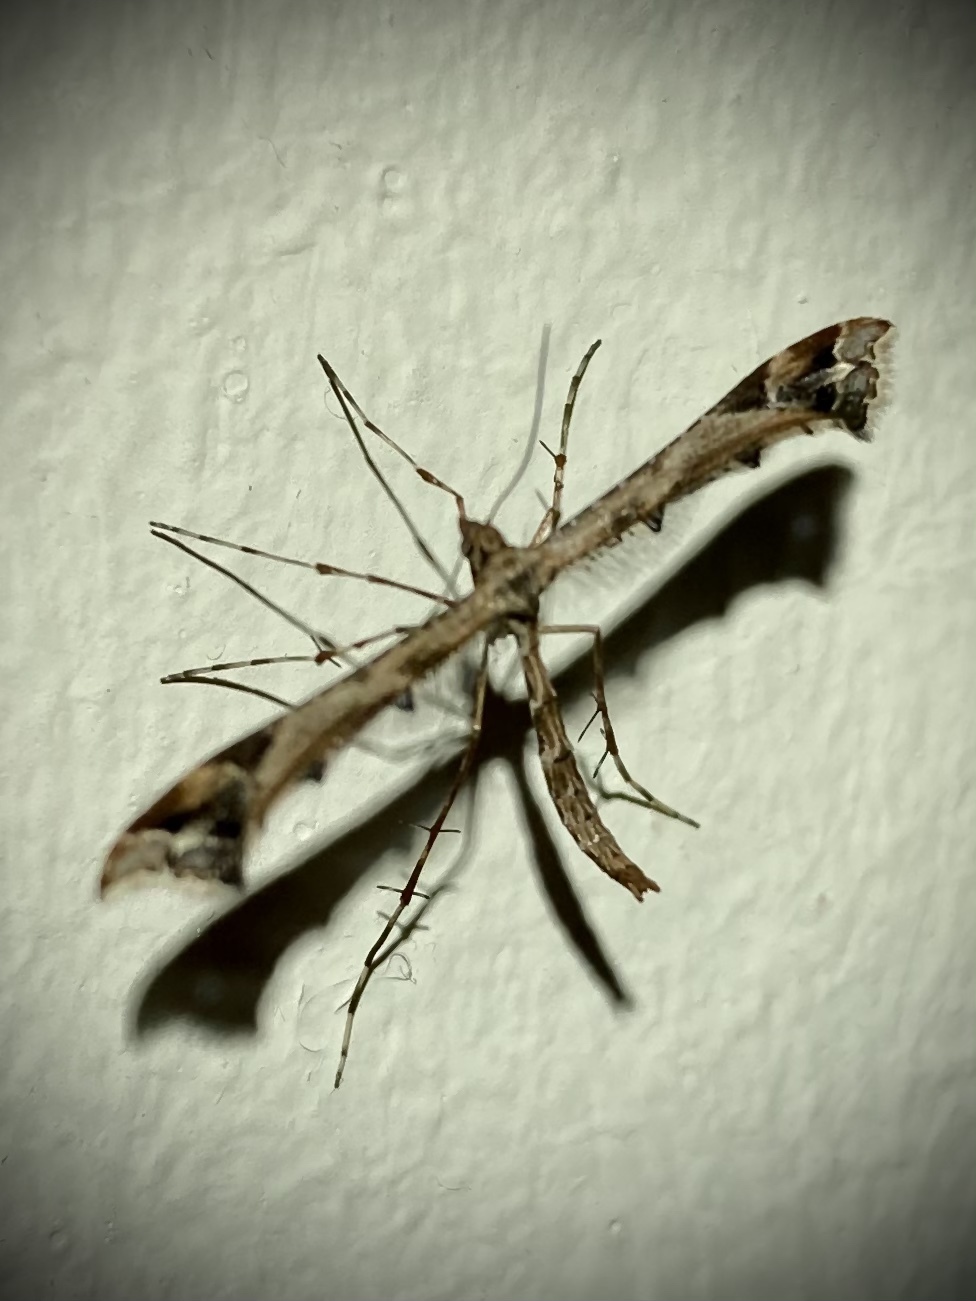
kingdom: Animalia
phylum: Arthropoda
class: Insecta
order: Lepidoptera
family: Pterophoridae
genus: Amblyptilia
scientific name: Amblyptilia acanthadactyla
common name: Beautiful plume
